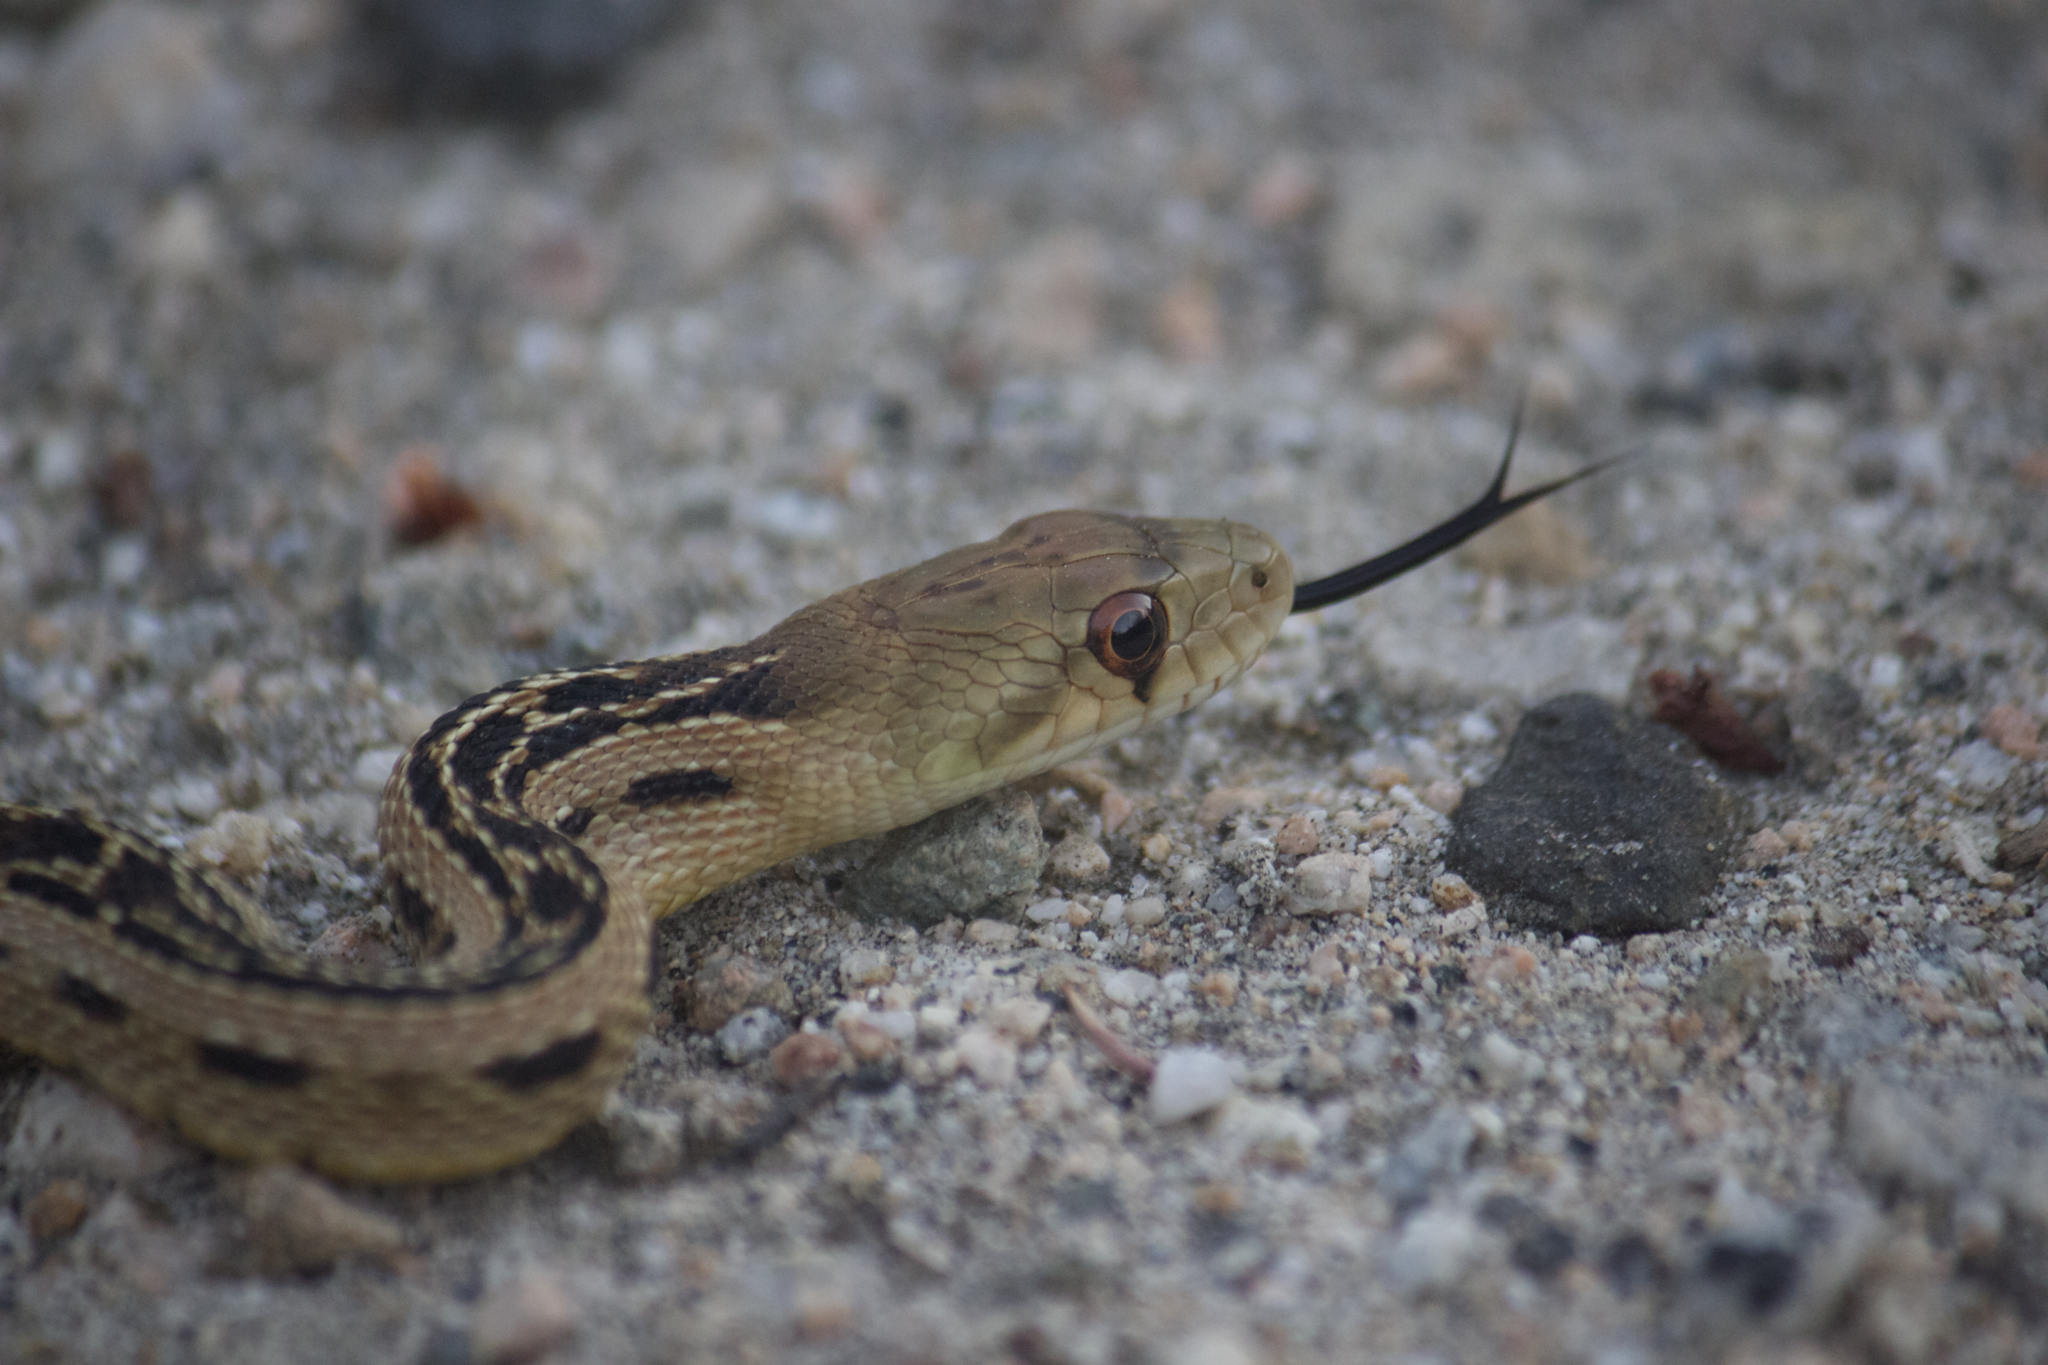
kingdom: Animalia
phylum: Chordata
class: Squamata
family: Colubridae
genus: Pituophis
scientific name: Pituophis catenifer
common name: Gopher snake
